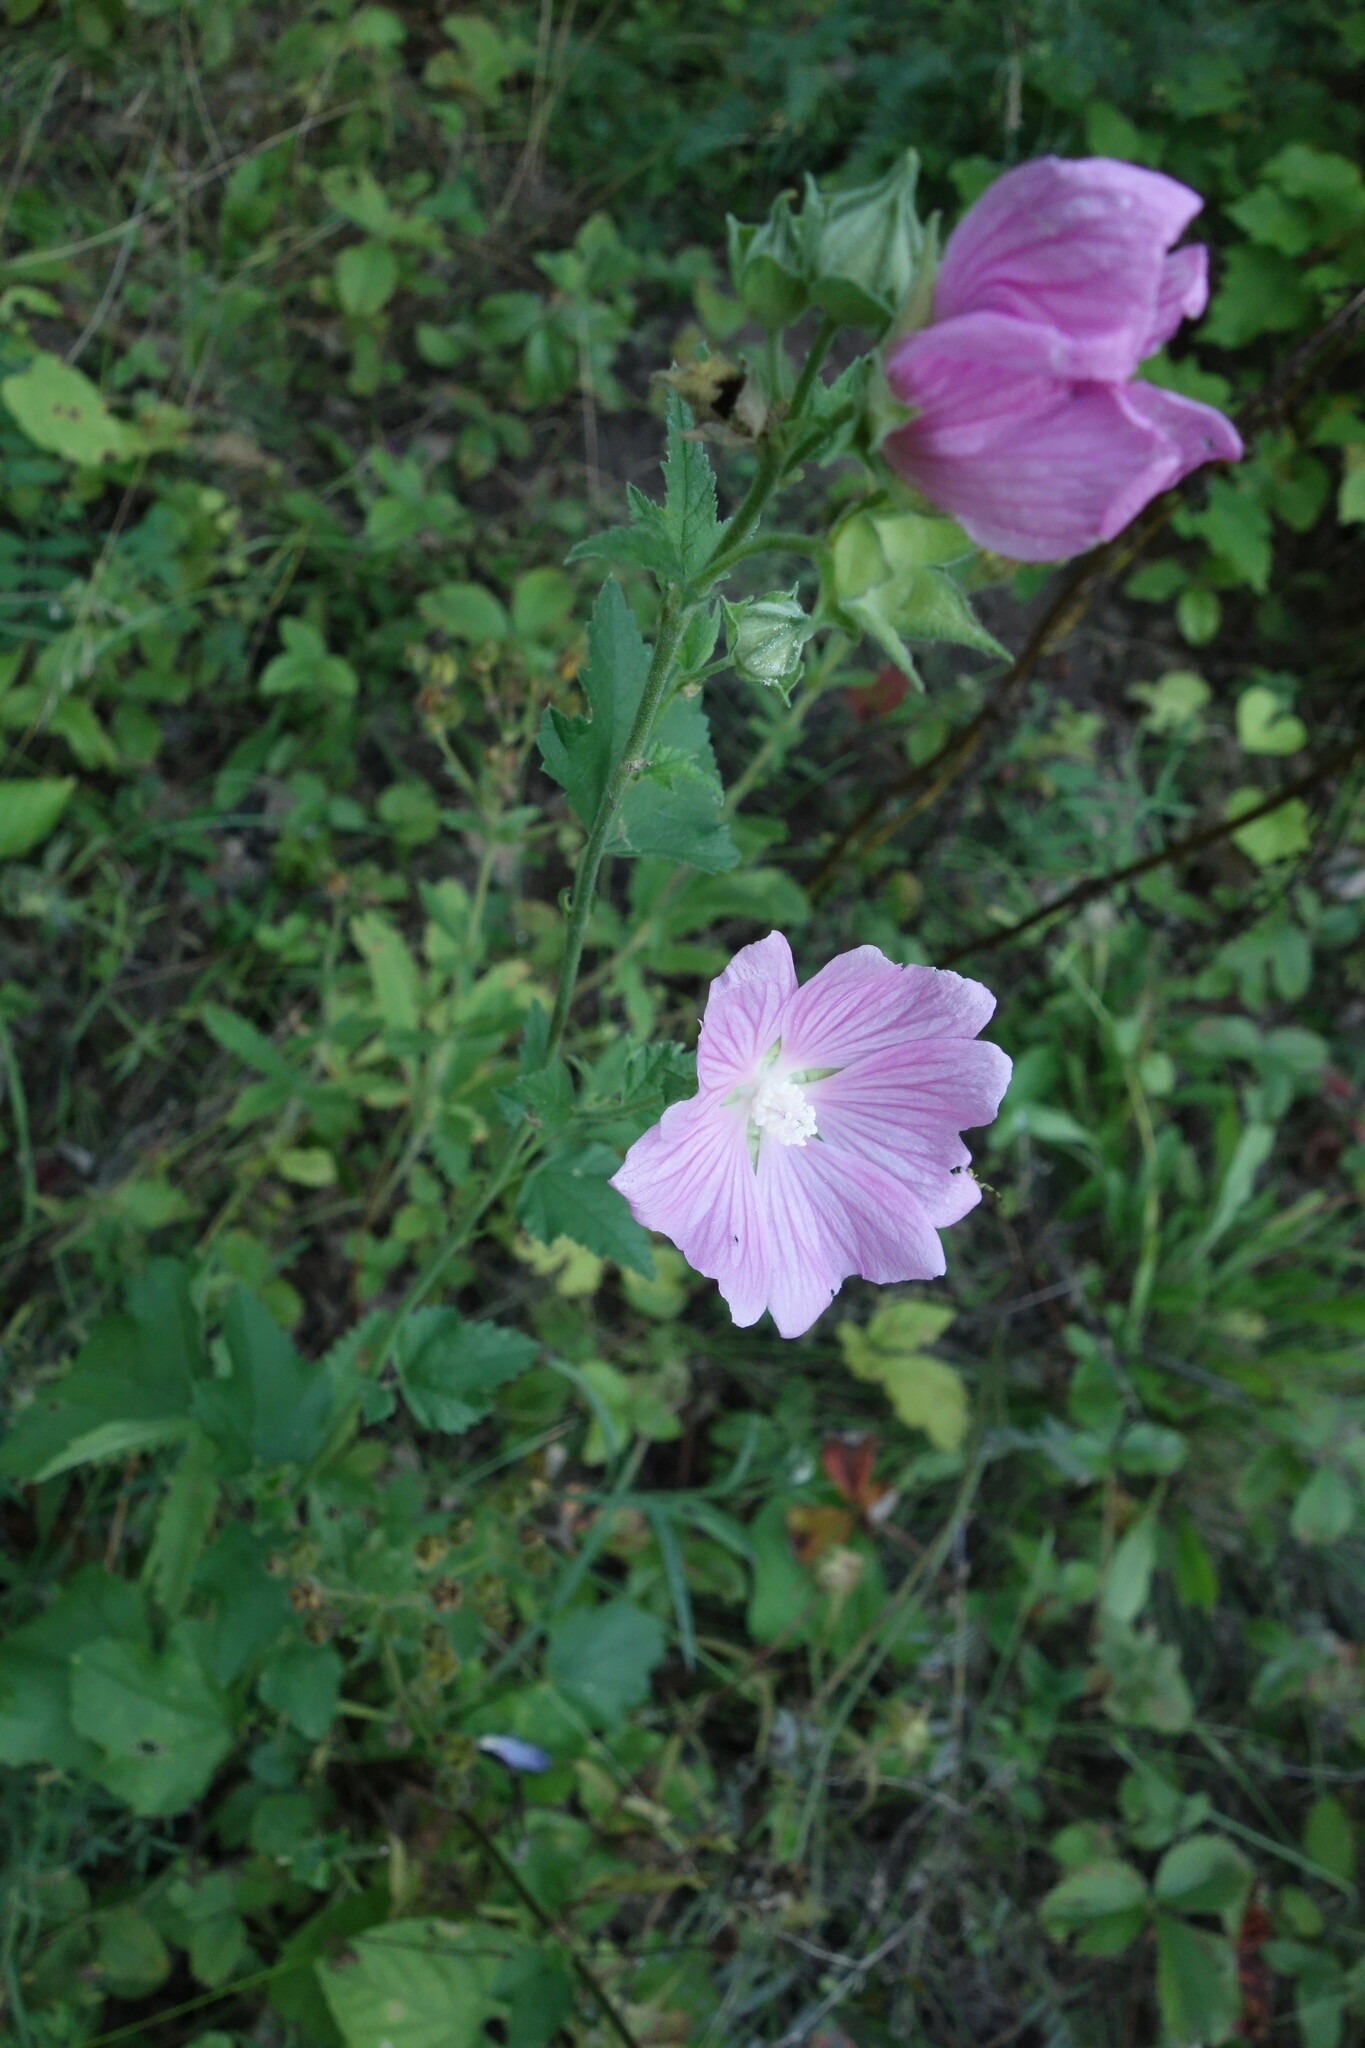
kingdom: Plantae
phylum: Tracheophyta
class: Magnoliopsida
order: Malvales
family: Malvaceae
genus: Malva
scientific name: Malva thuringiaca
